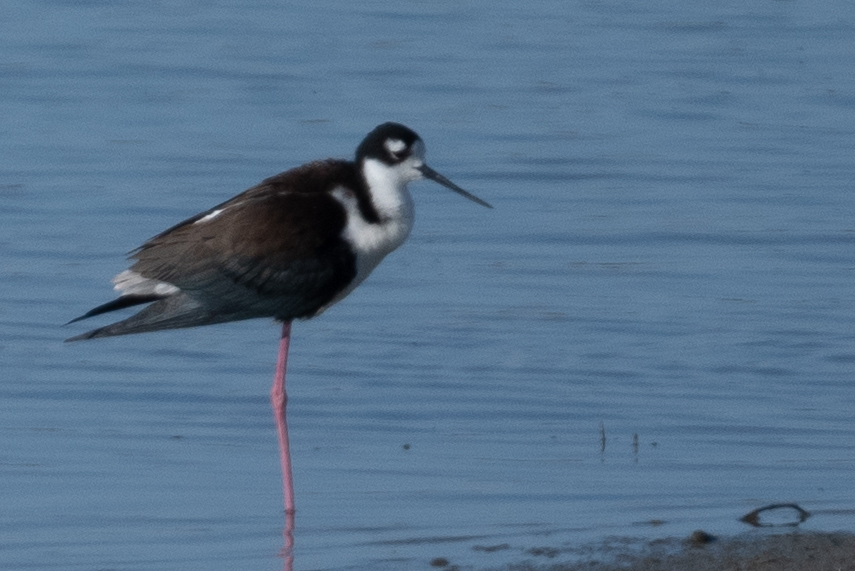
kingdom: Animalia
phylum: Chordata
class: Aves
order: Charadriiformes
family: Recurvirostridae
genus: Himantopus
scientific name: Himantopus mexicanus
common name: Black-necked stilt
